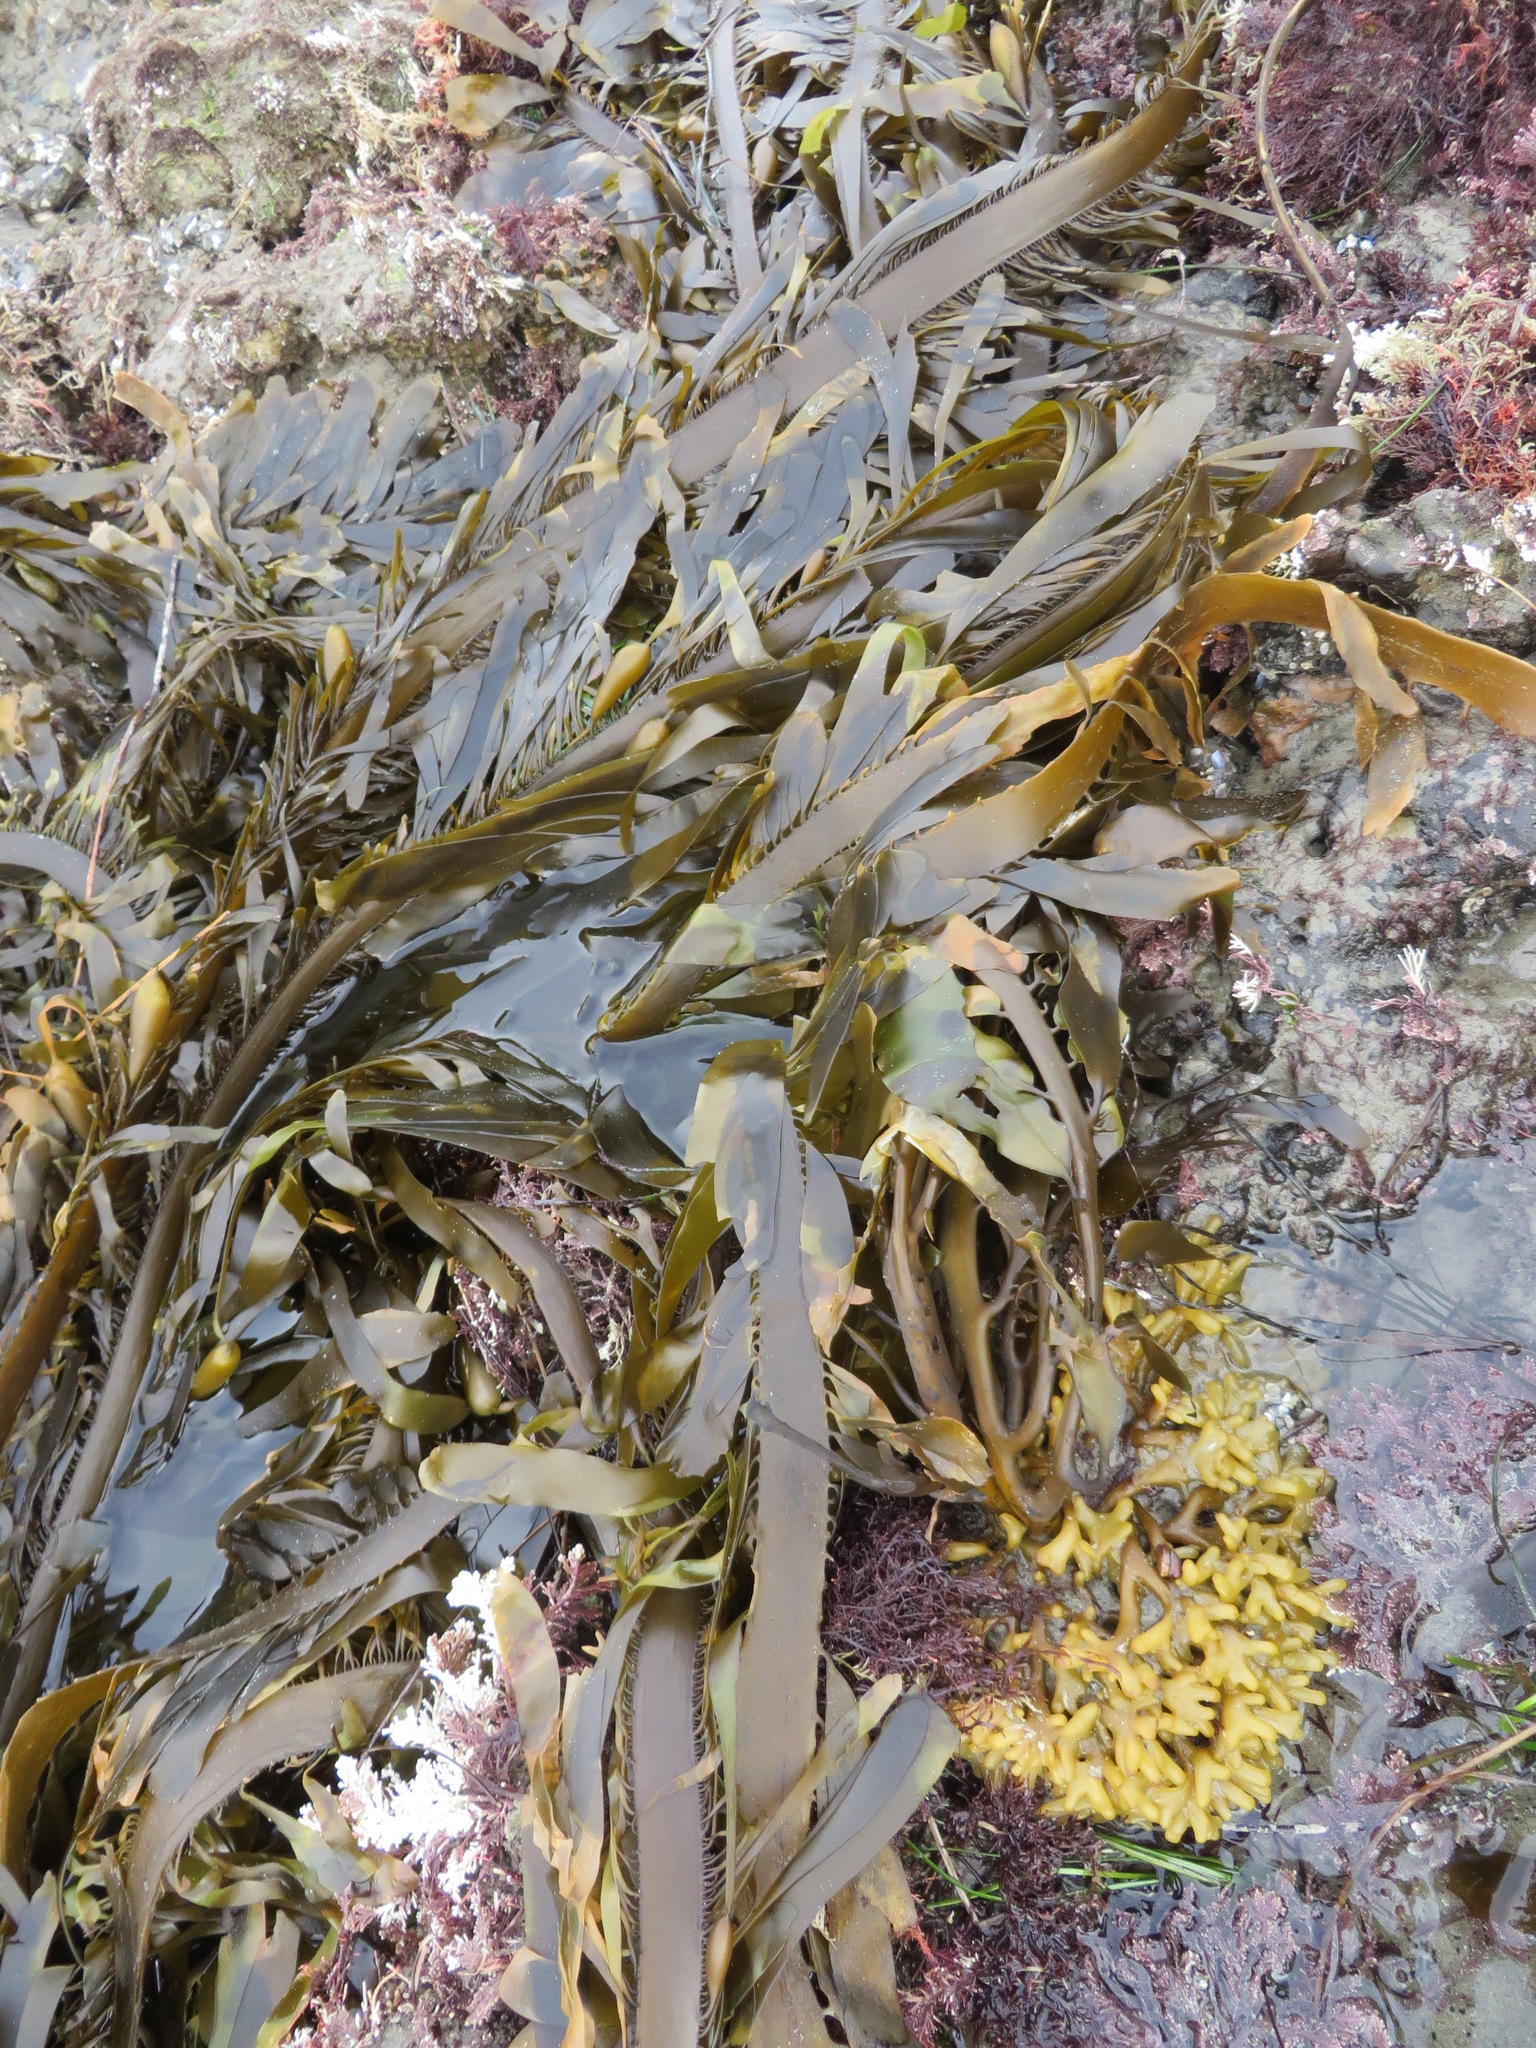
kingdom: Chromista
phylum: Ochrophyta
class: Phaeophyceae
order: Laminariales
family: Lessoniaceae
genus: Egregia
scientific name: Egregia menziesii
